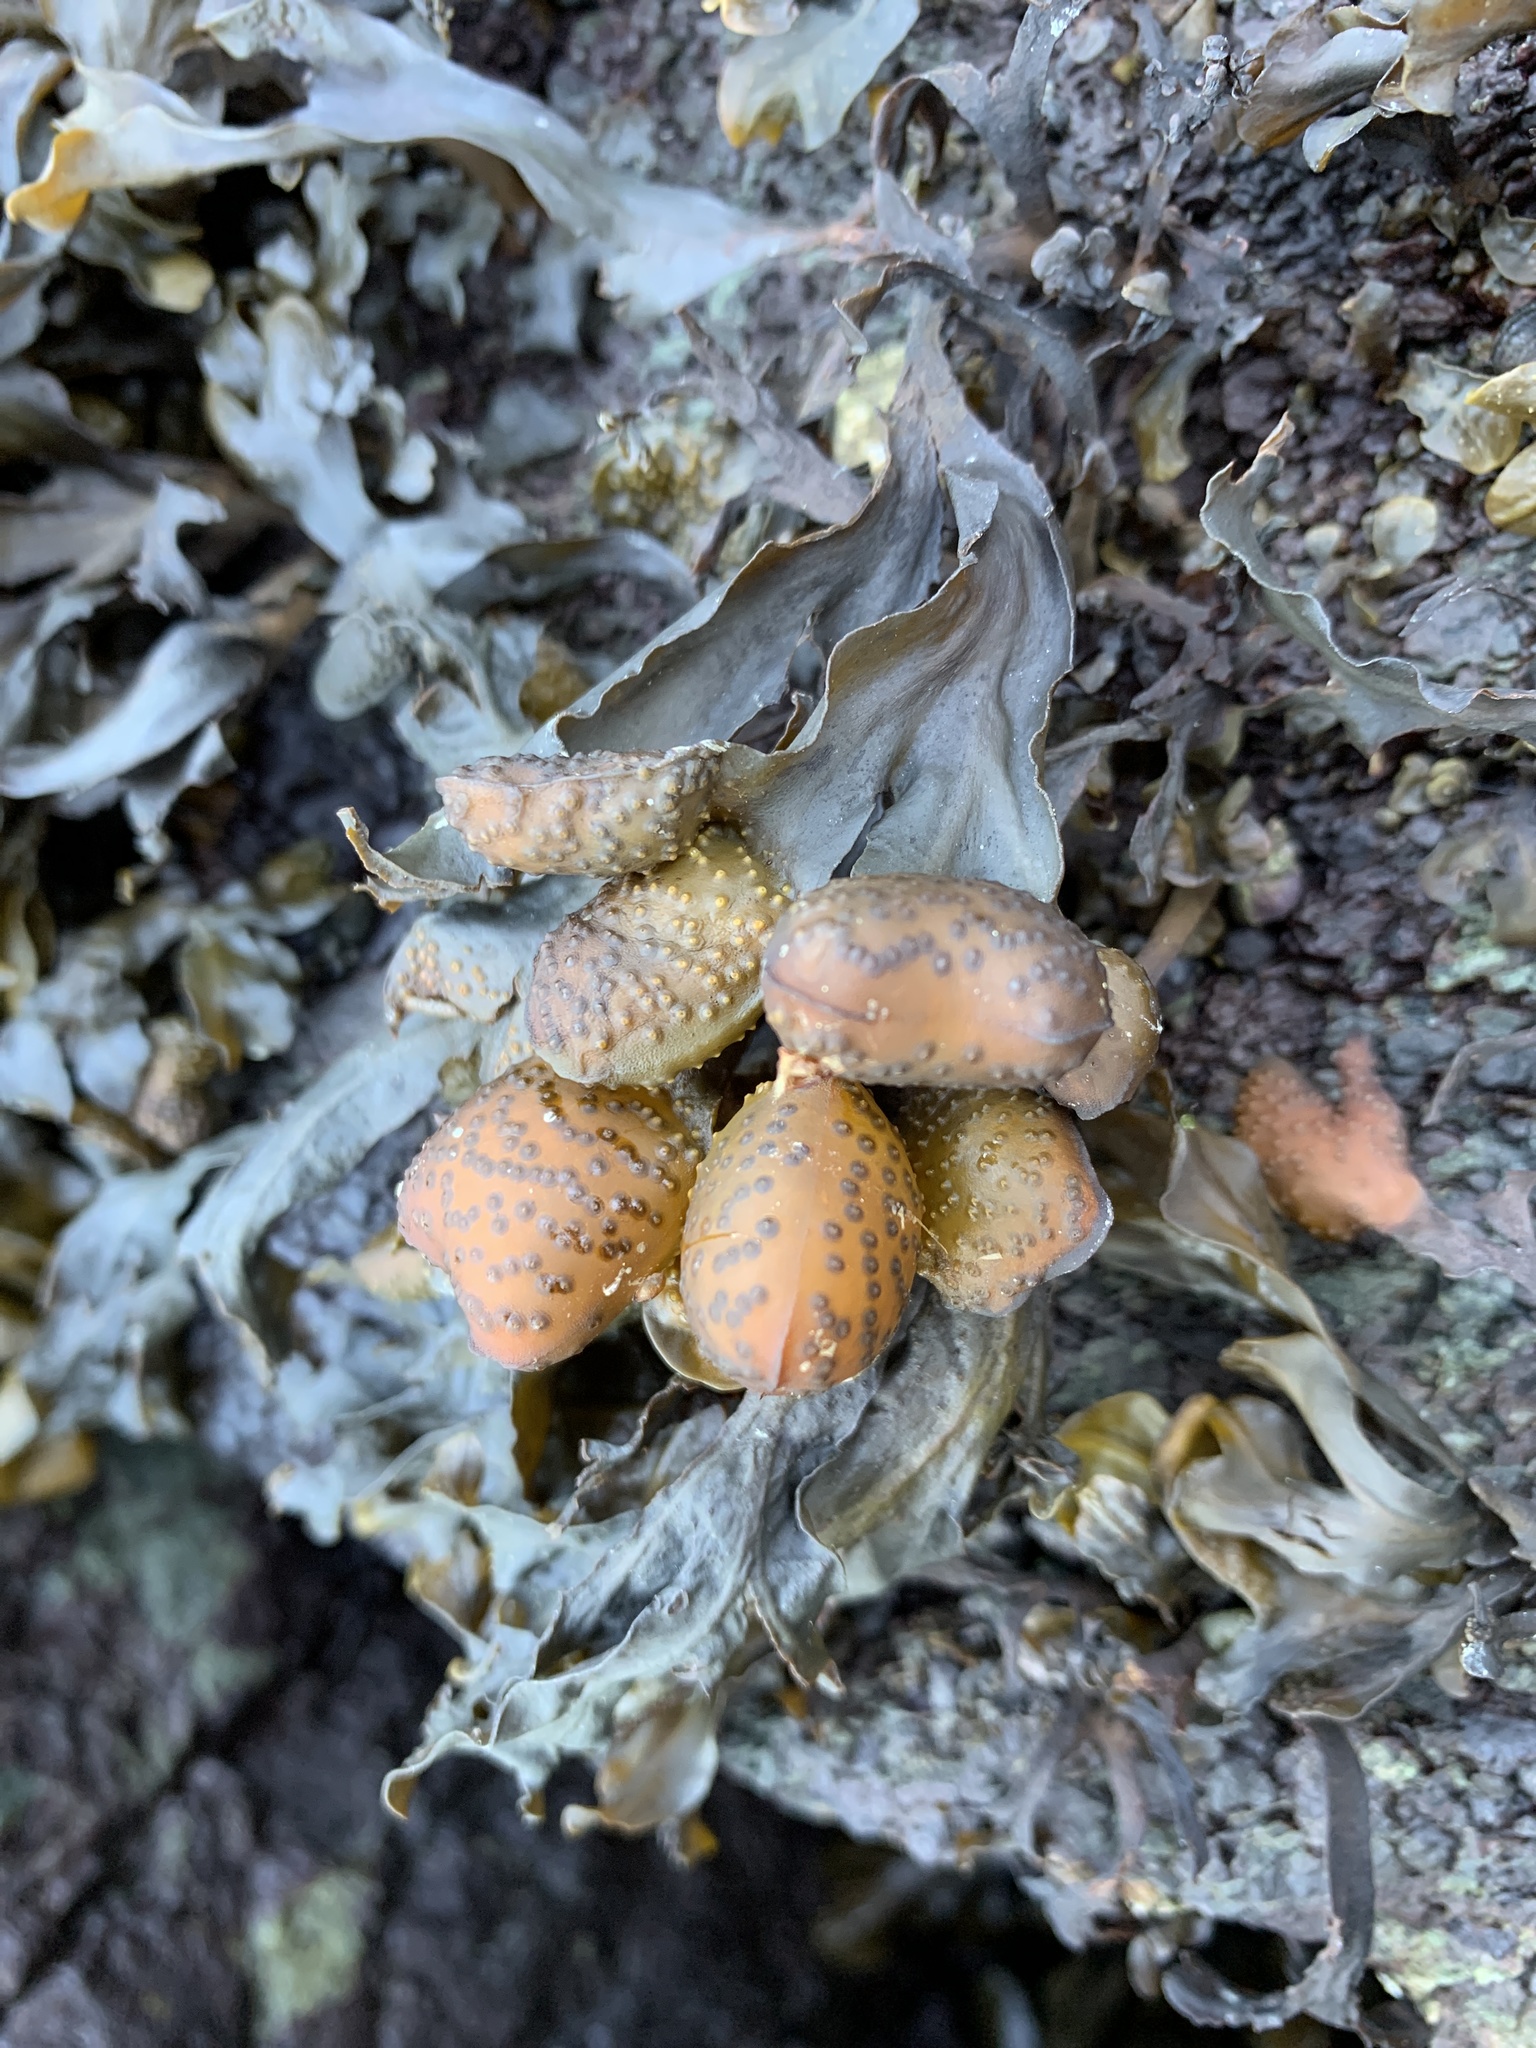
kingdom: Chromista
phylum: Ochrophyta
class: Phaeophyceae
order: Fucales
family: Fucaceae
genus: Fucus
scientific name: Fucus distichus
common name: Rockweed
